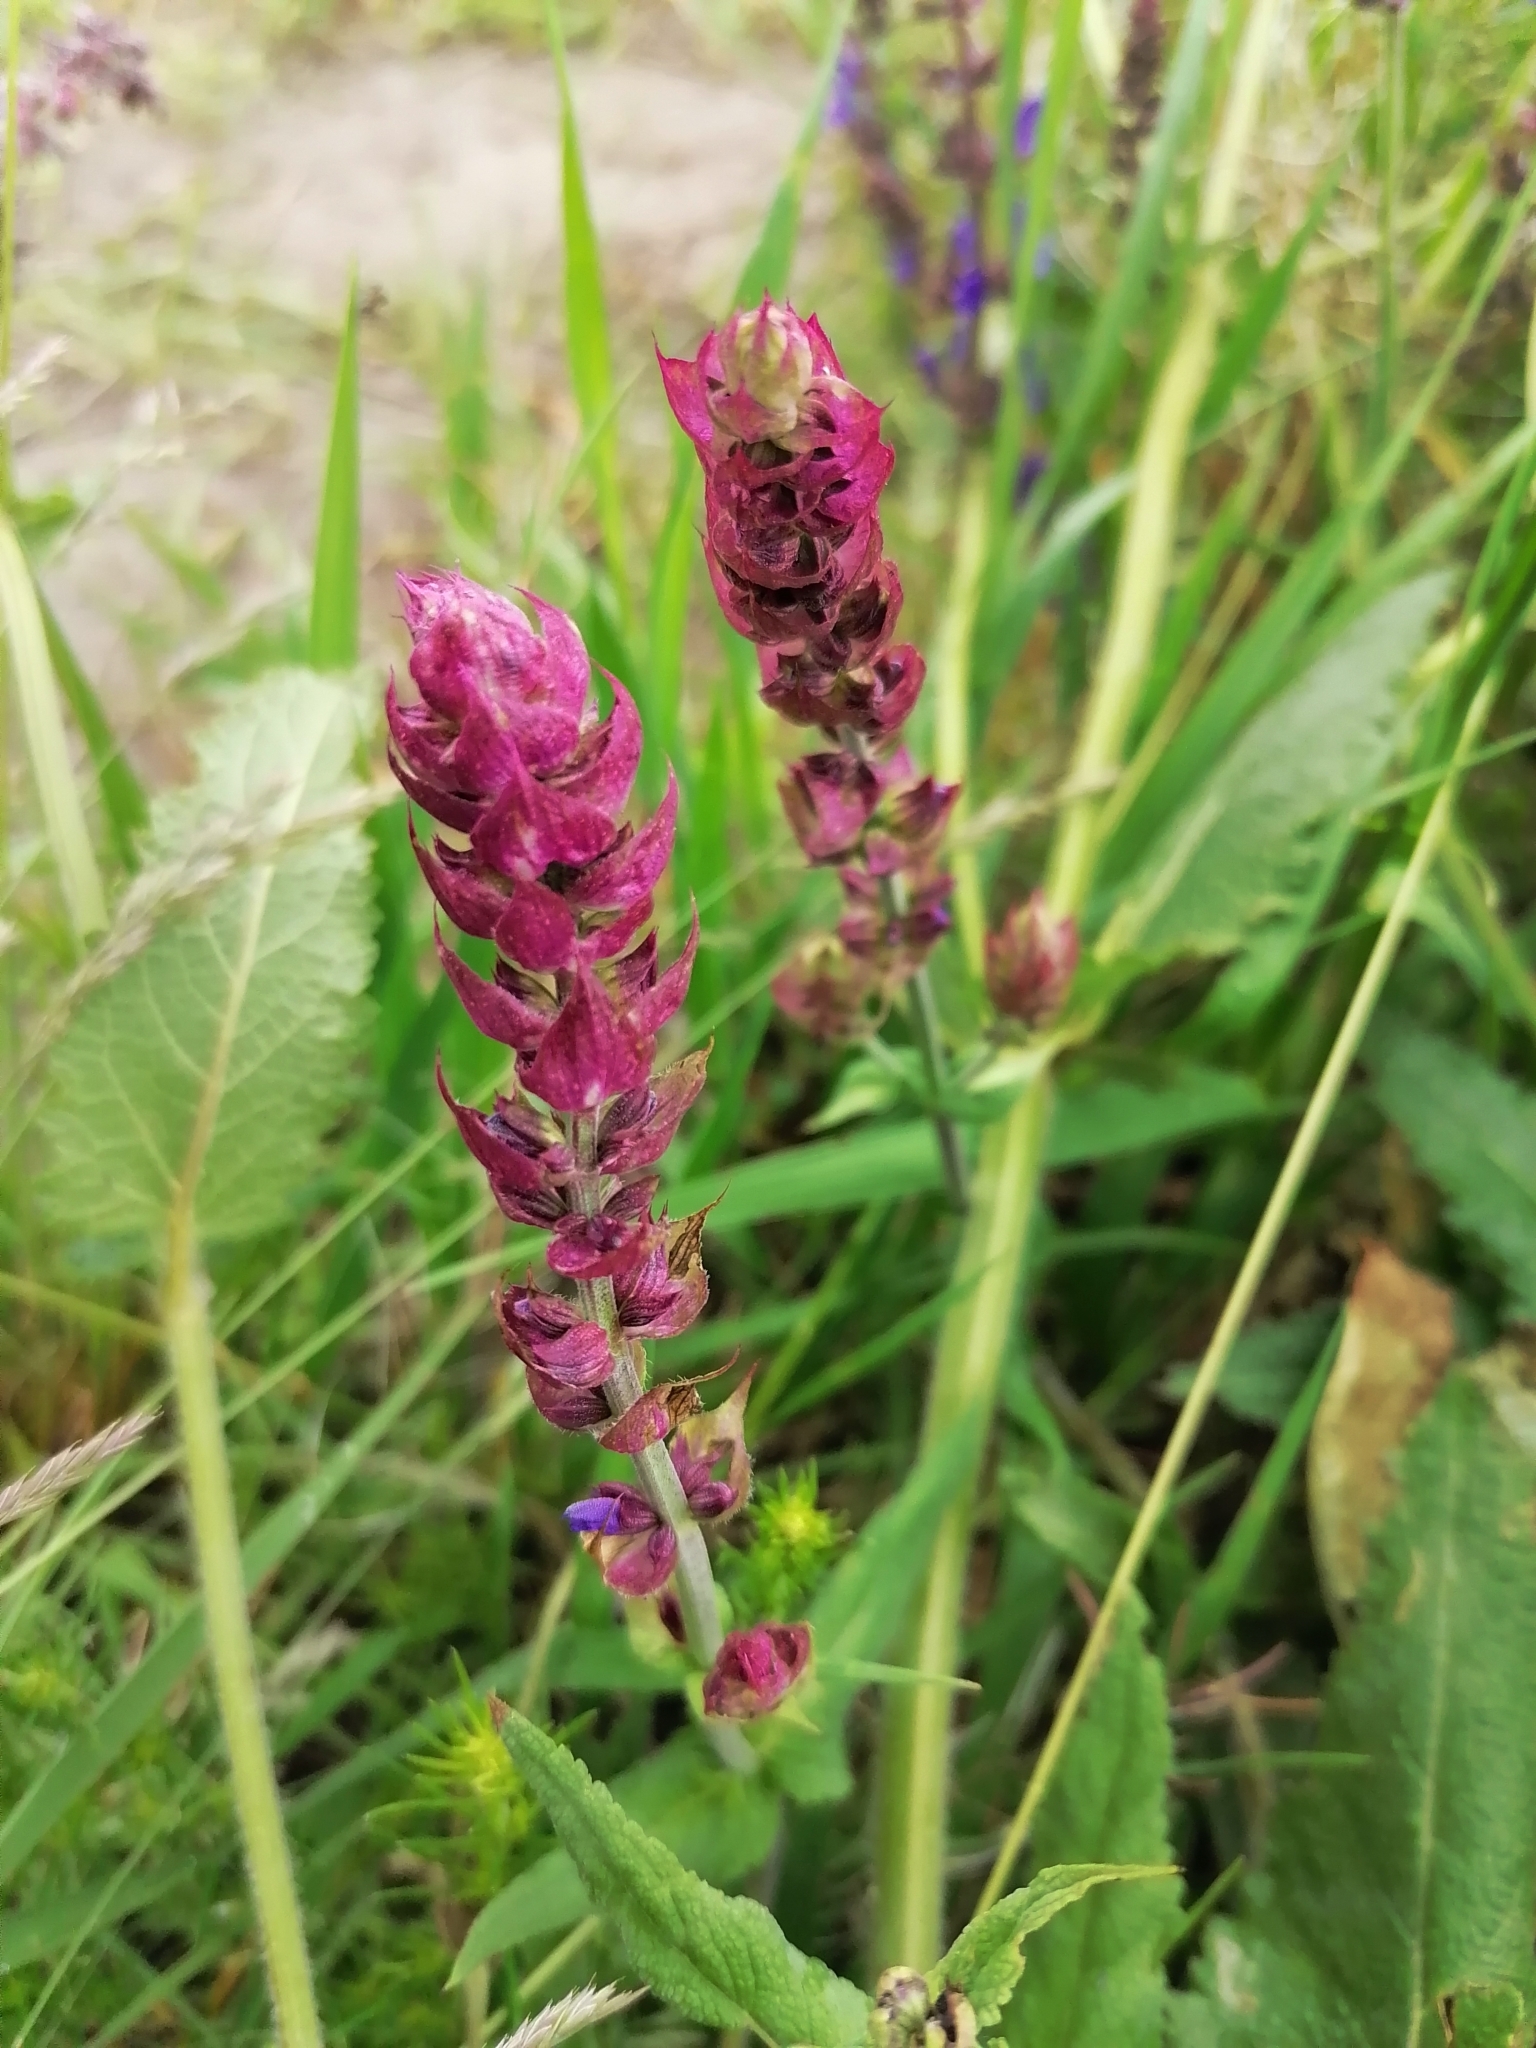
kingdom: Plantae
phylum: Tracheophyta
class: Magnoliopsida
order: Lamiales
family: Lamiaceae
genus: Salvia
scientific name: Salvia pratensis
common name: Meadow sage
